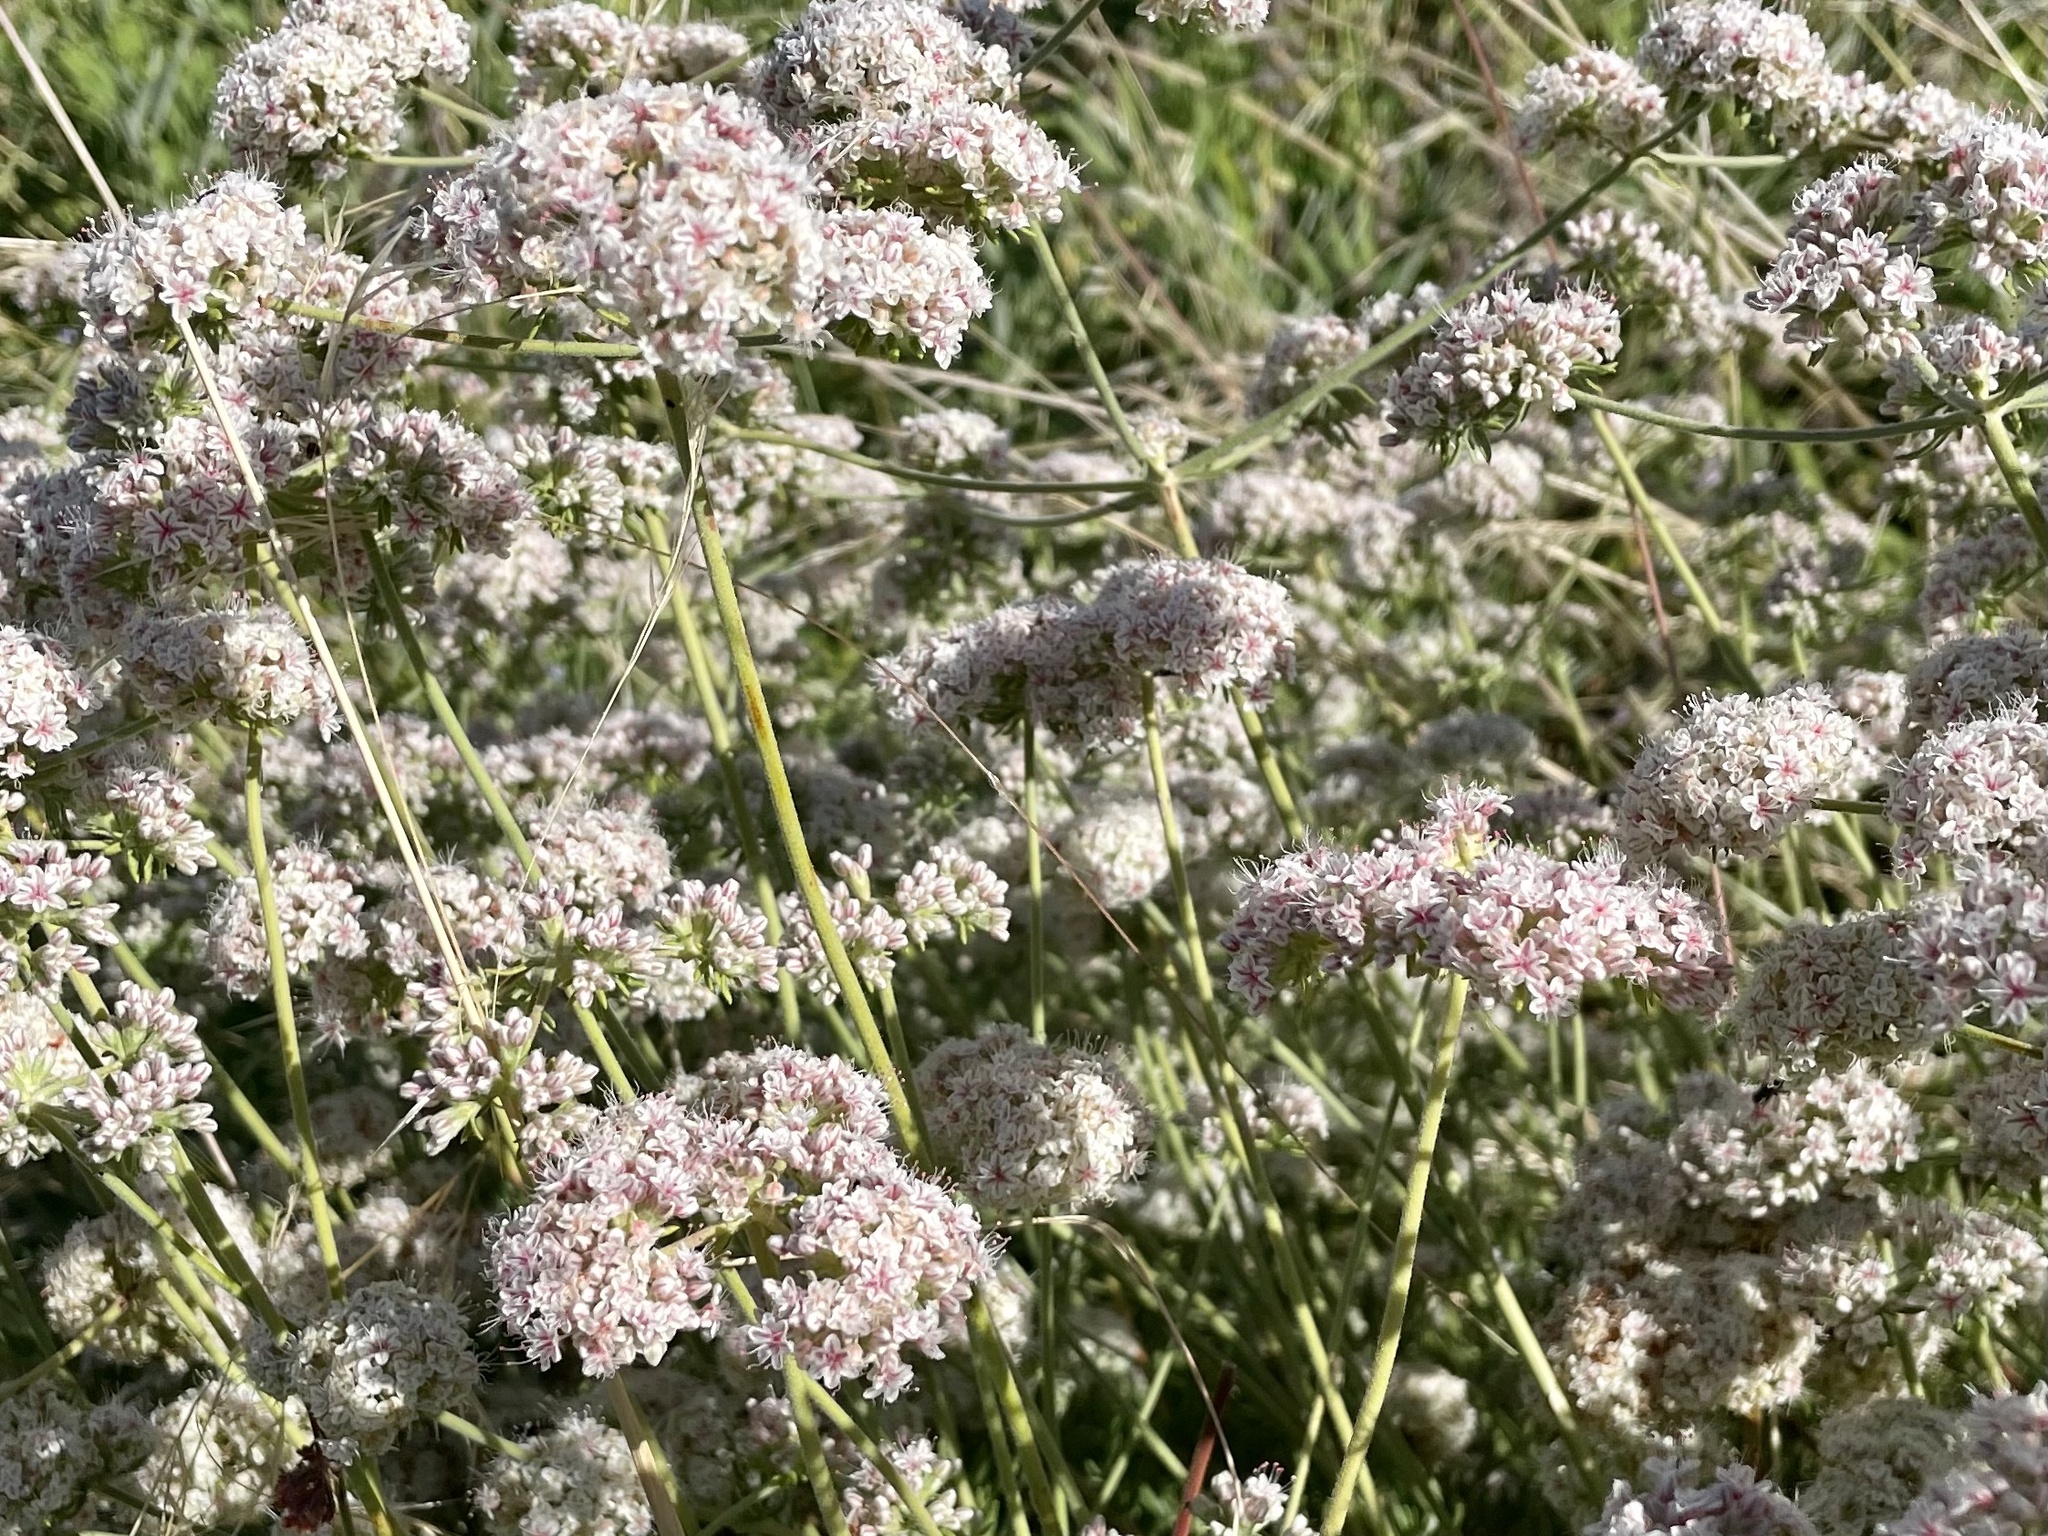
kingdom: Plantae
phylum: Tracheophyta
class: Magnoliopsida
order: Caryophyllales
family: Polygonaceae
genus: Eriogonum
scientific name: Eriogonum fasciculatum
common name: California wild buckwheat
